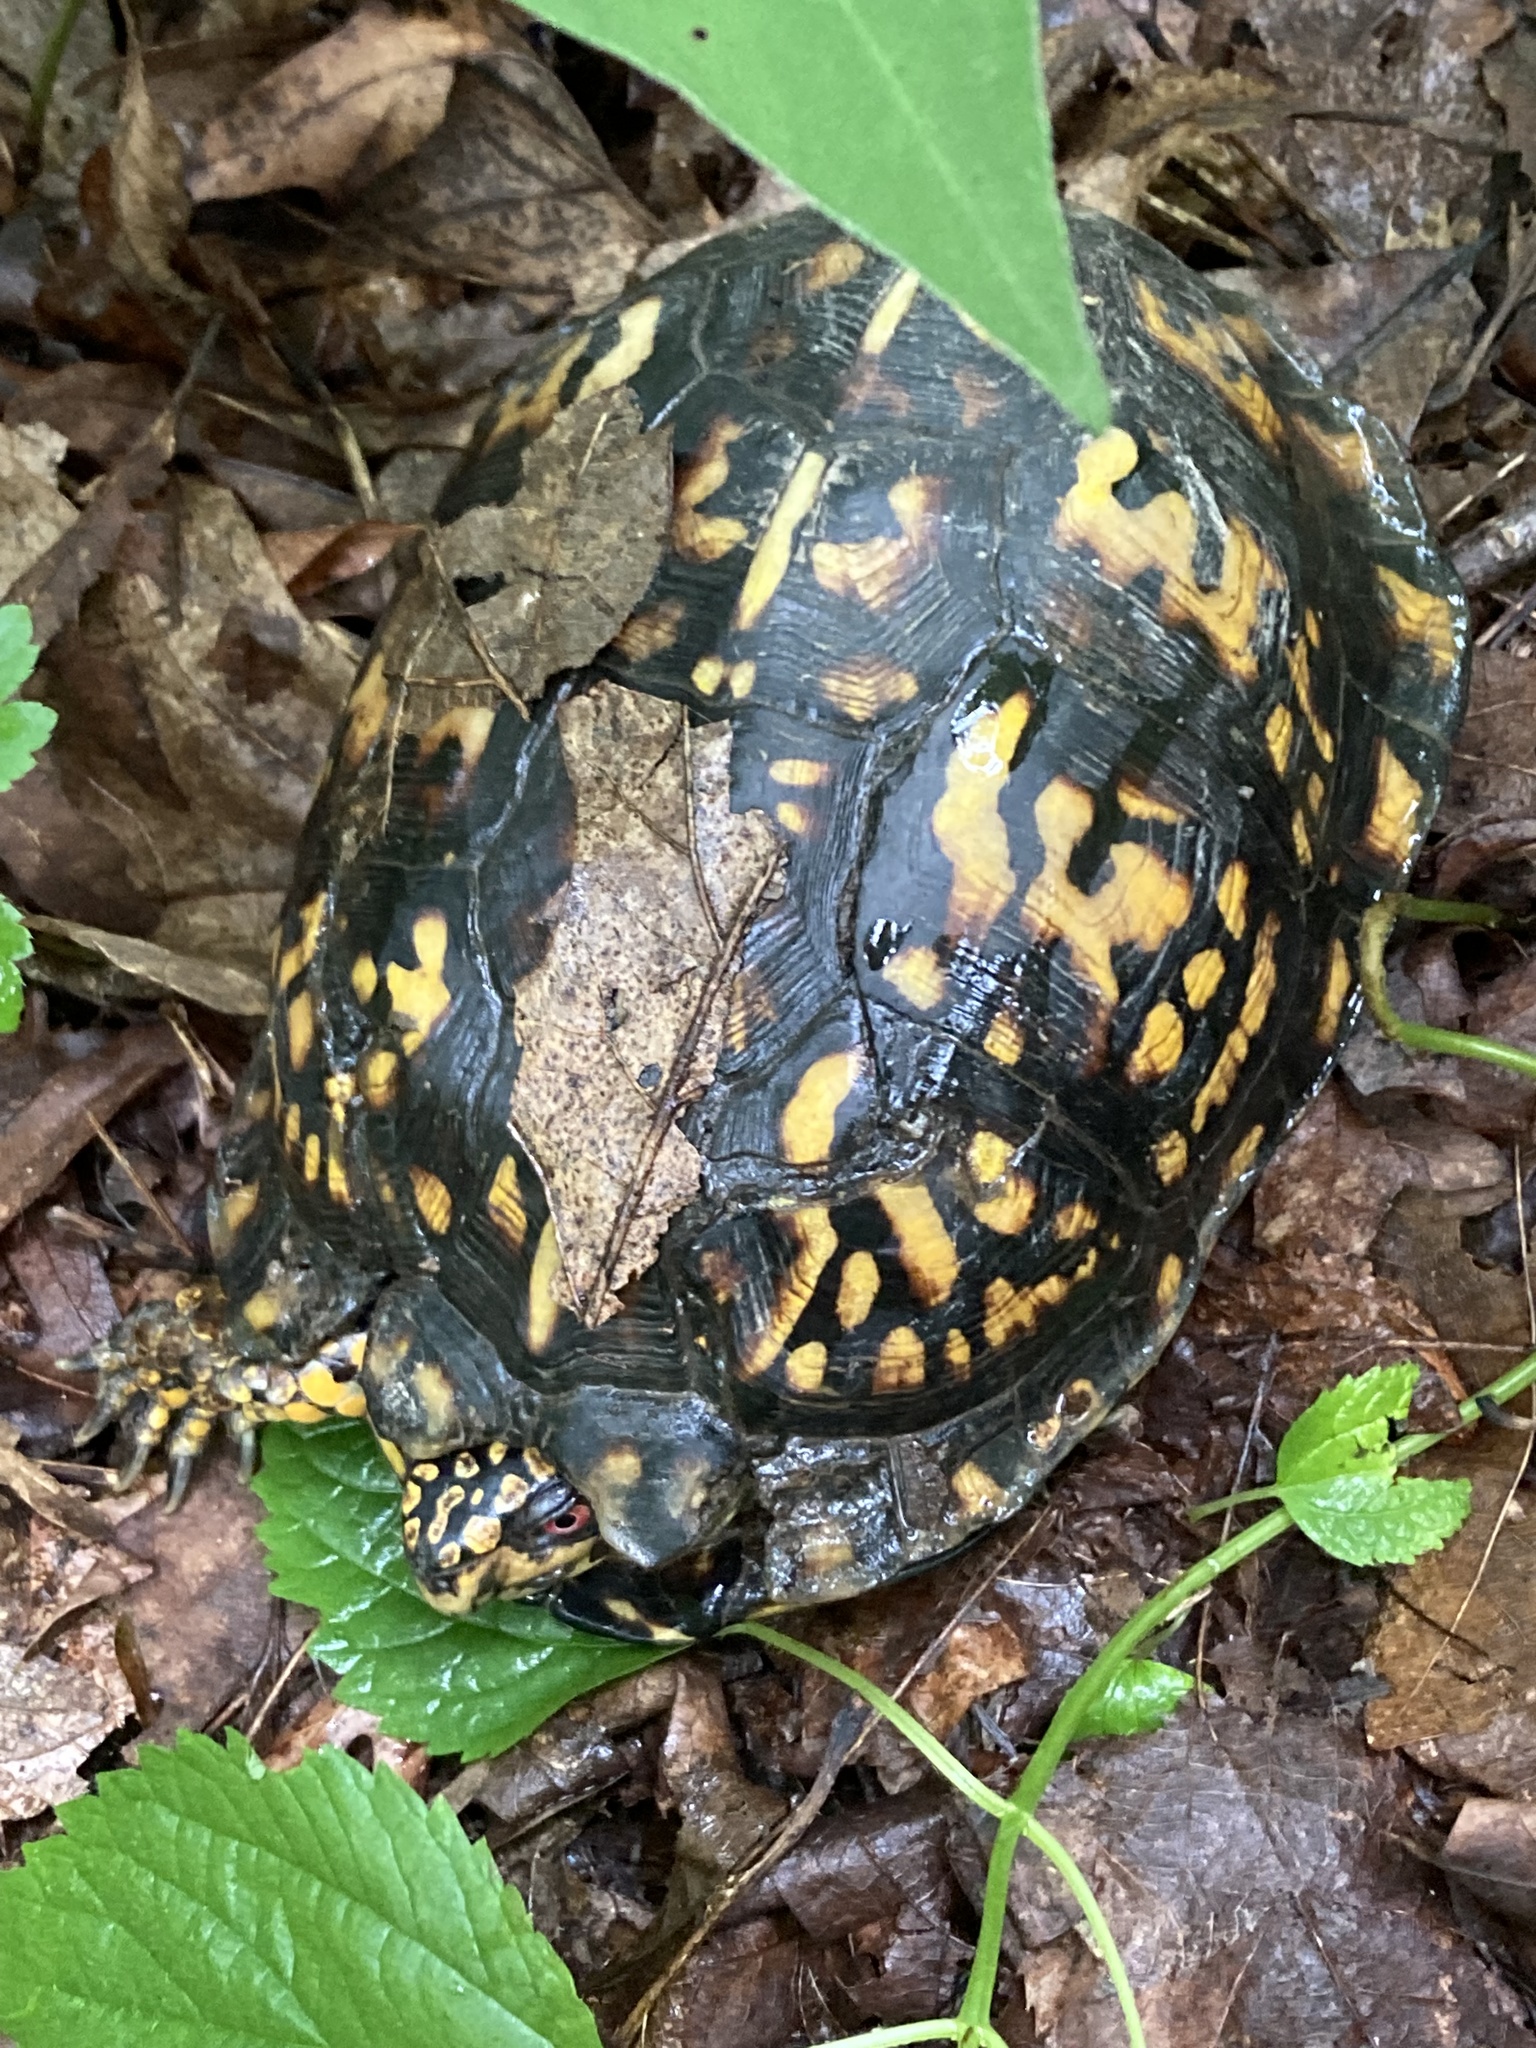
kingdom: Animalia
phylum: Chordata
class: Testudines
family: Emydidae
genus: Terrapene
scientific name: Terrapene carolina
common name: Common box turtle
